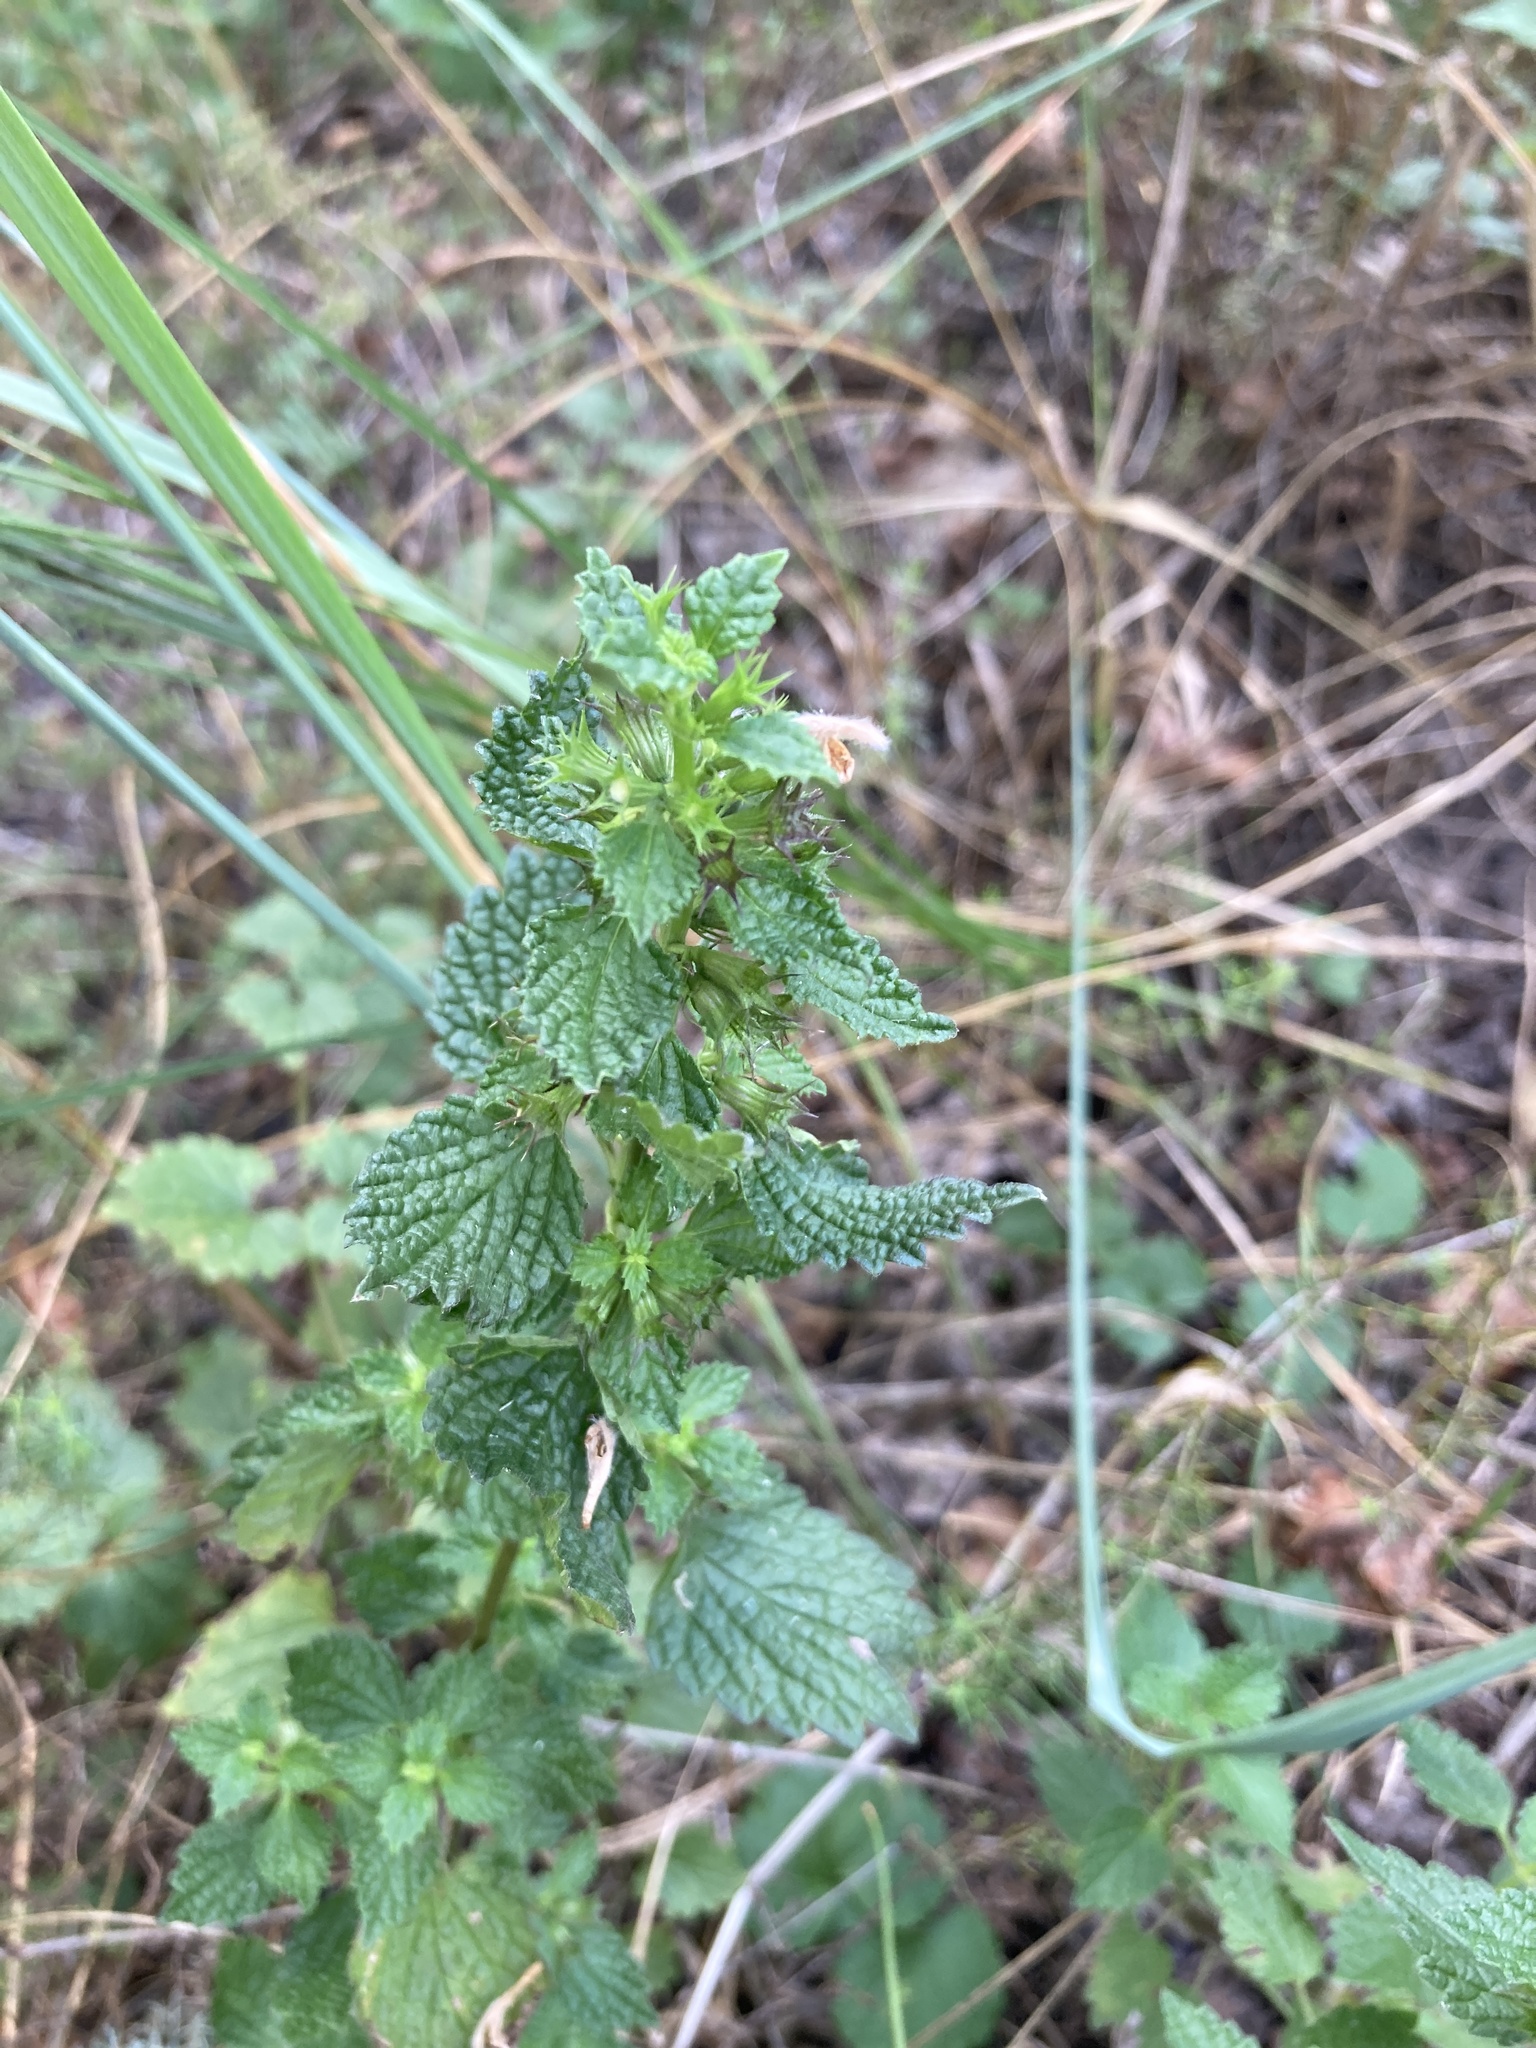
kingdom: Plantae
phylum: Tracheophyta
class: Magnoliopsida
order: Lamiales
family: Lamiaceae
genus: Ballota
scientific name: Ballota nigra
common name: Black horehound
